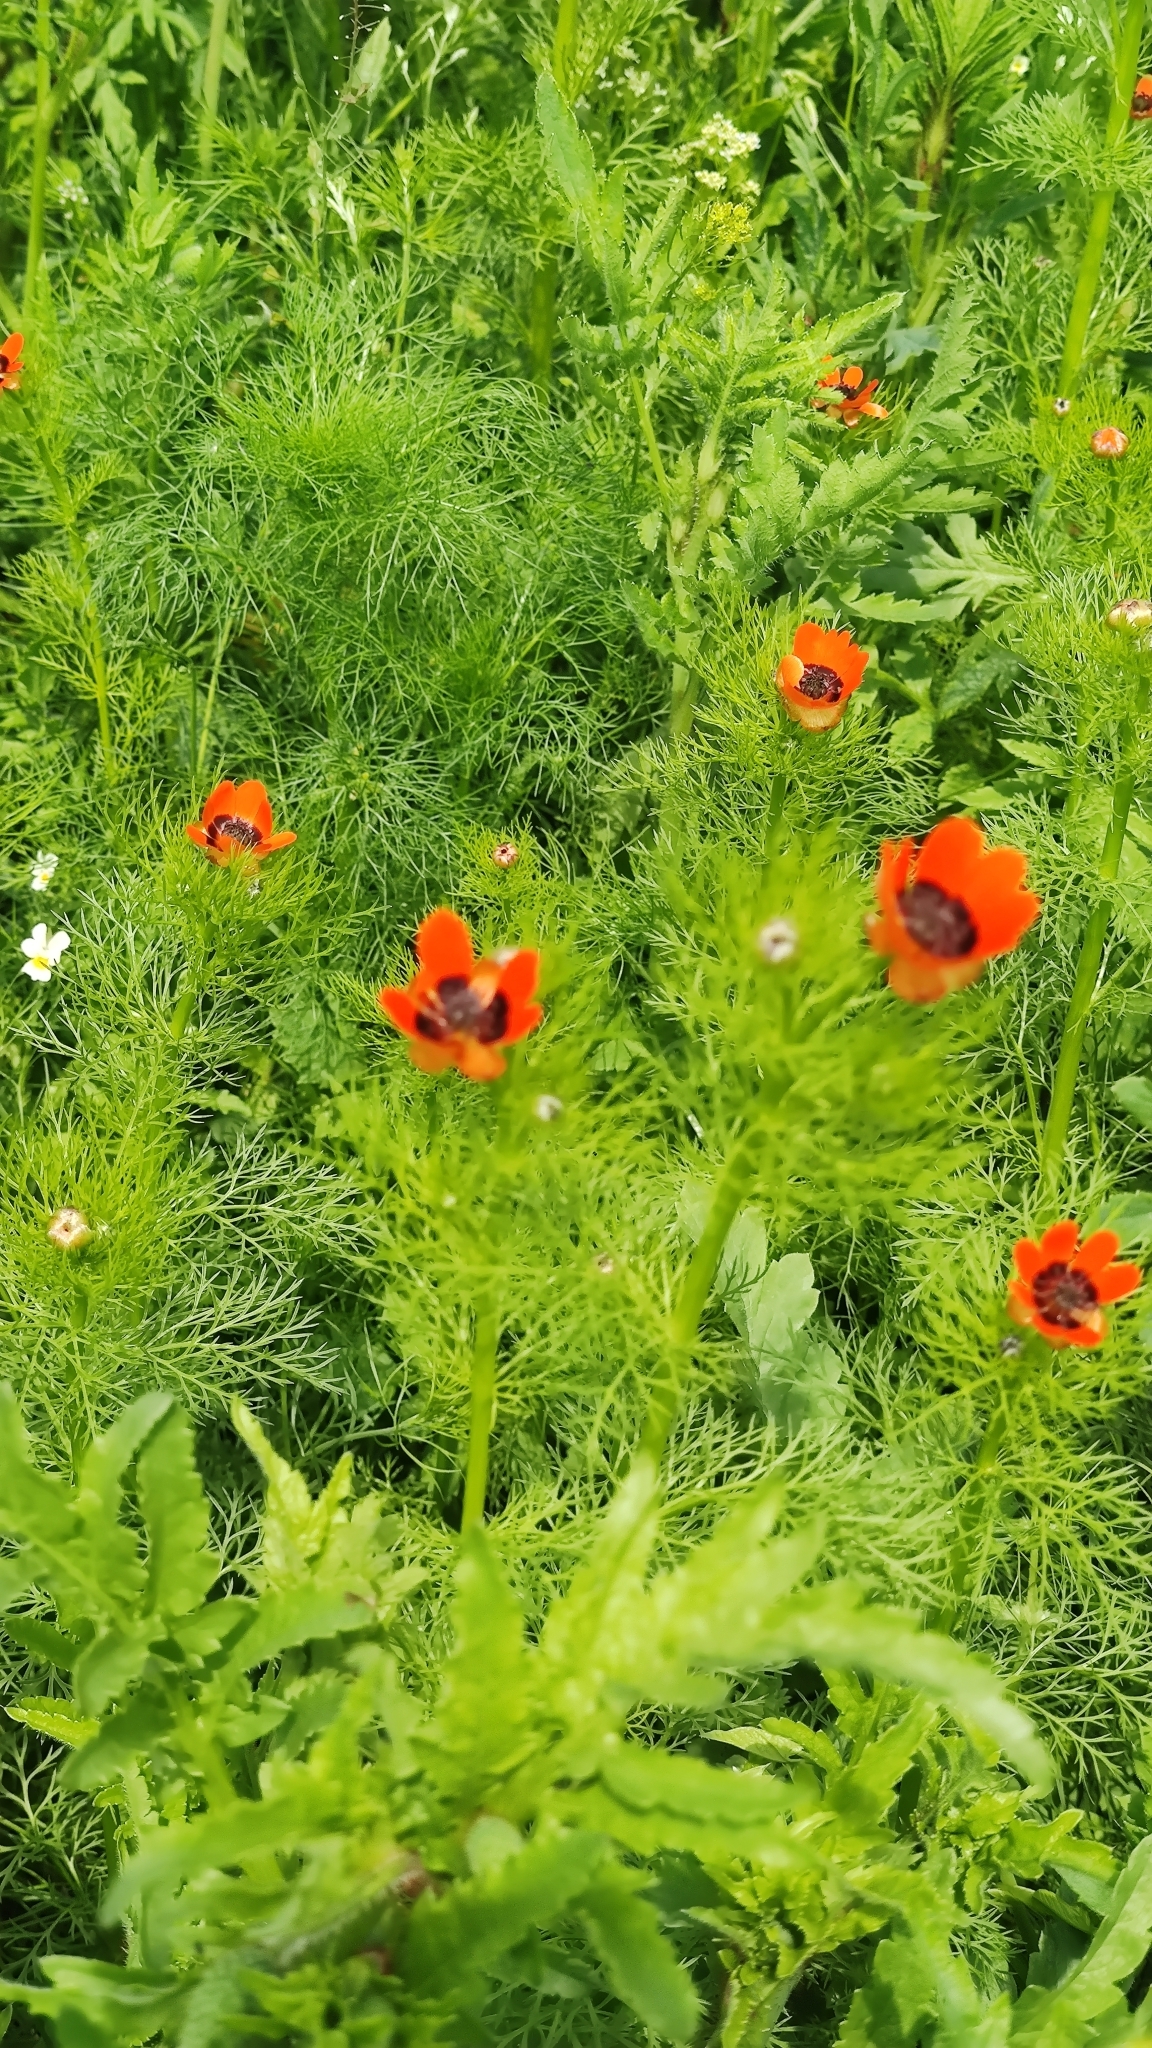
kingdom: Plantae
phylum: Tracheophyta
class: Magnoliopsida
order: Ranunculales
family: Ranunculaceae
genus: Adonis
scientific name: Adonis aestivalis
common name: Summer pheasant's-eye
